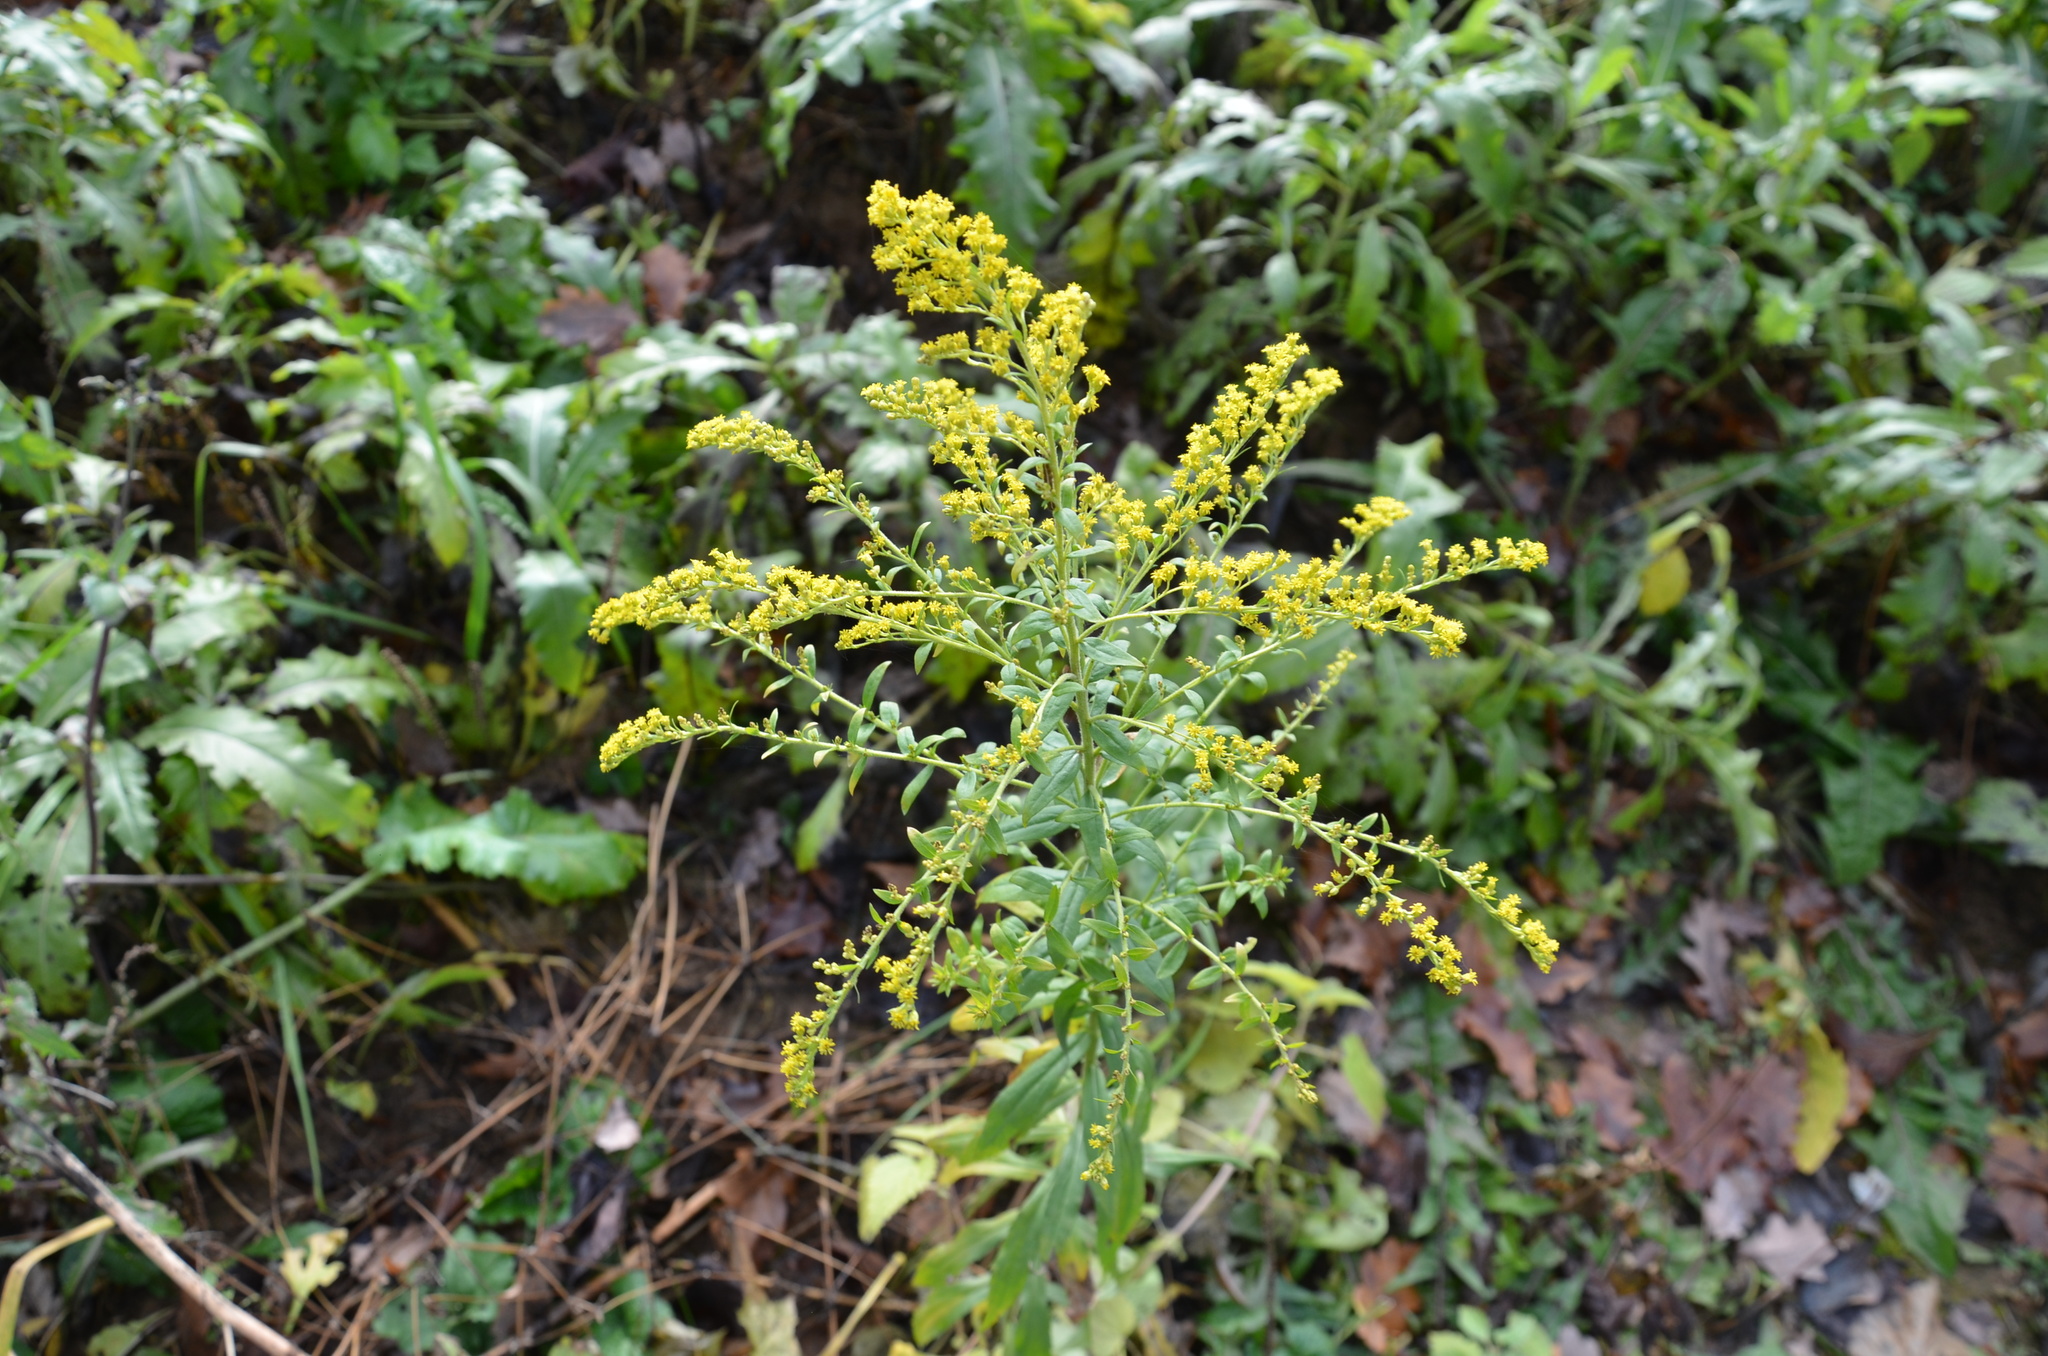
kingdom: Plantae
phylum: Tracheophyta
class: Magnoliopsida
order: Asterales
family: Asteraceae
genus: Solidago
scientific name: Solidago canadensis
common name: Canada goldenrod
